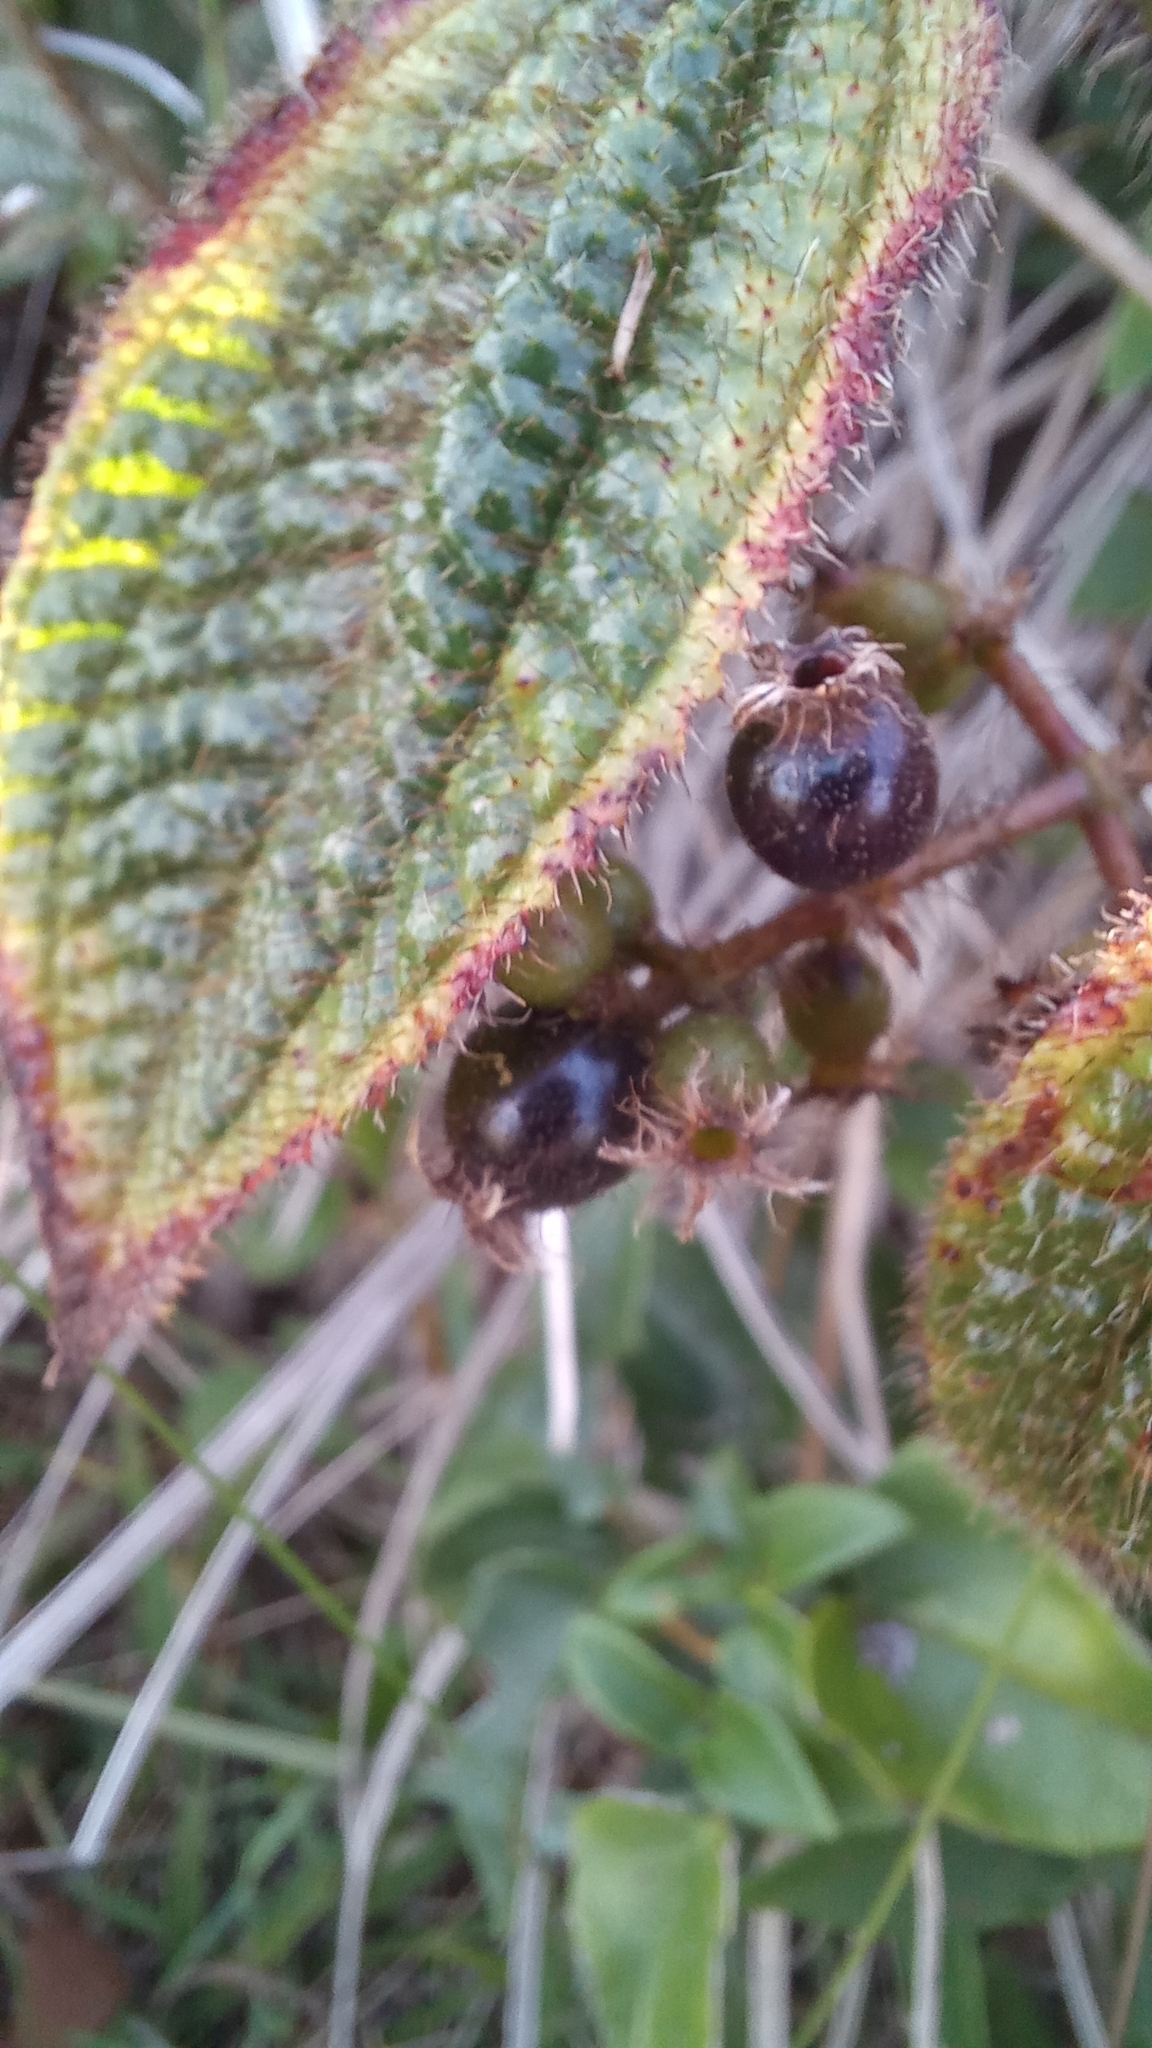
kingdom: Plantae
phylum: Tracheophyta
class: Magnoliopsida
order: Myrtales
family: Melastomataceae
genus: Miconia
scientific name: Miconia australis
